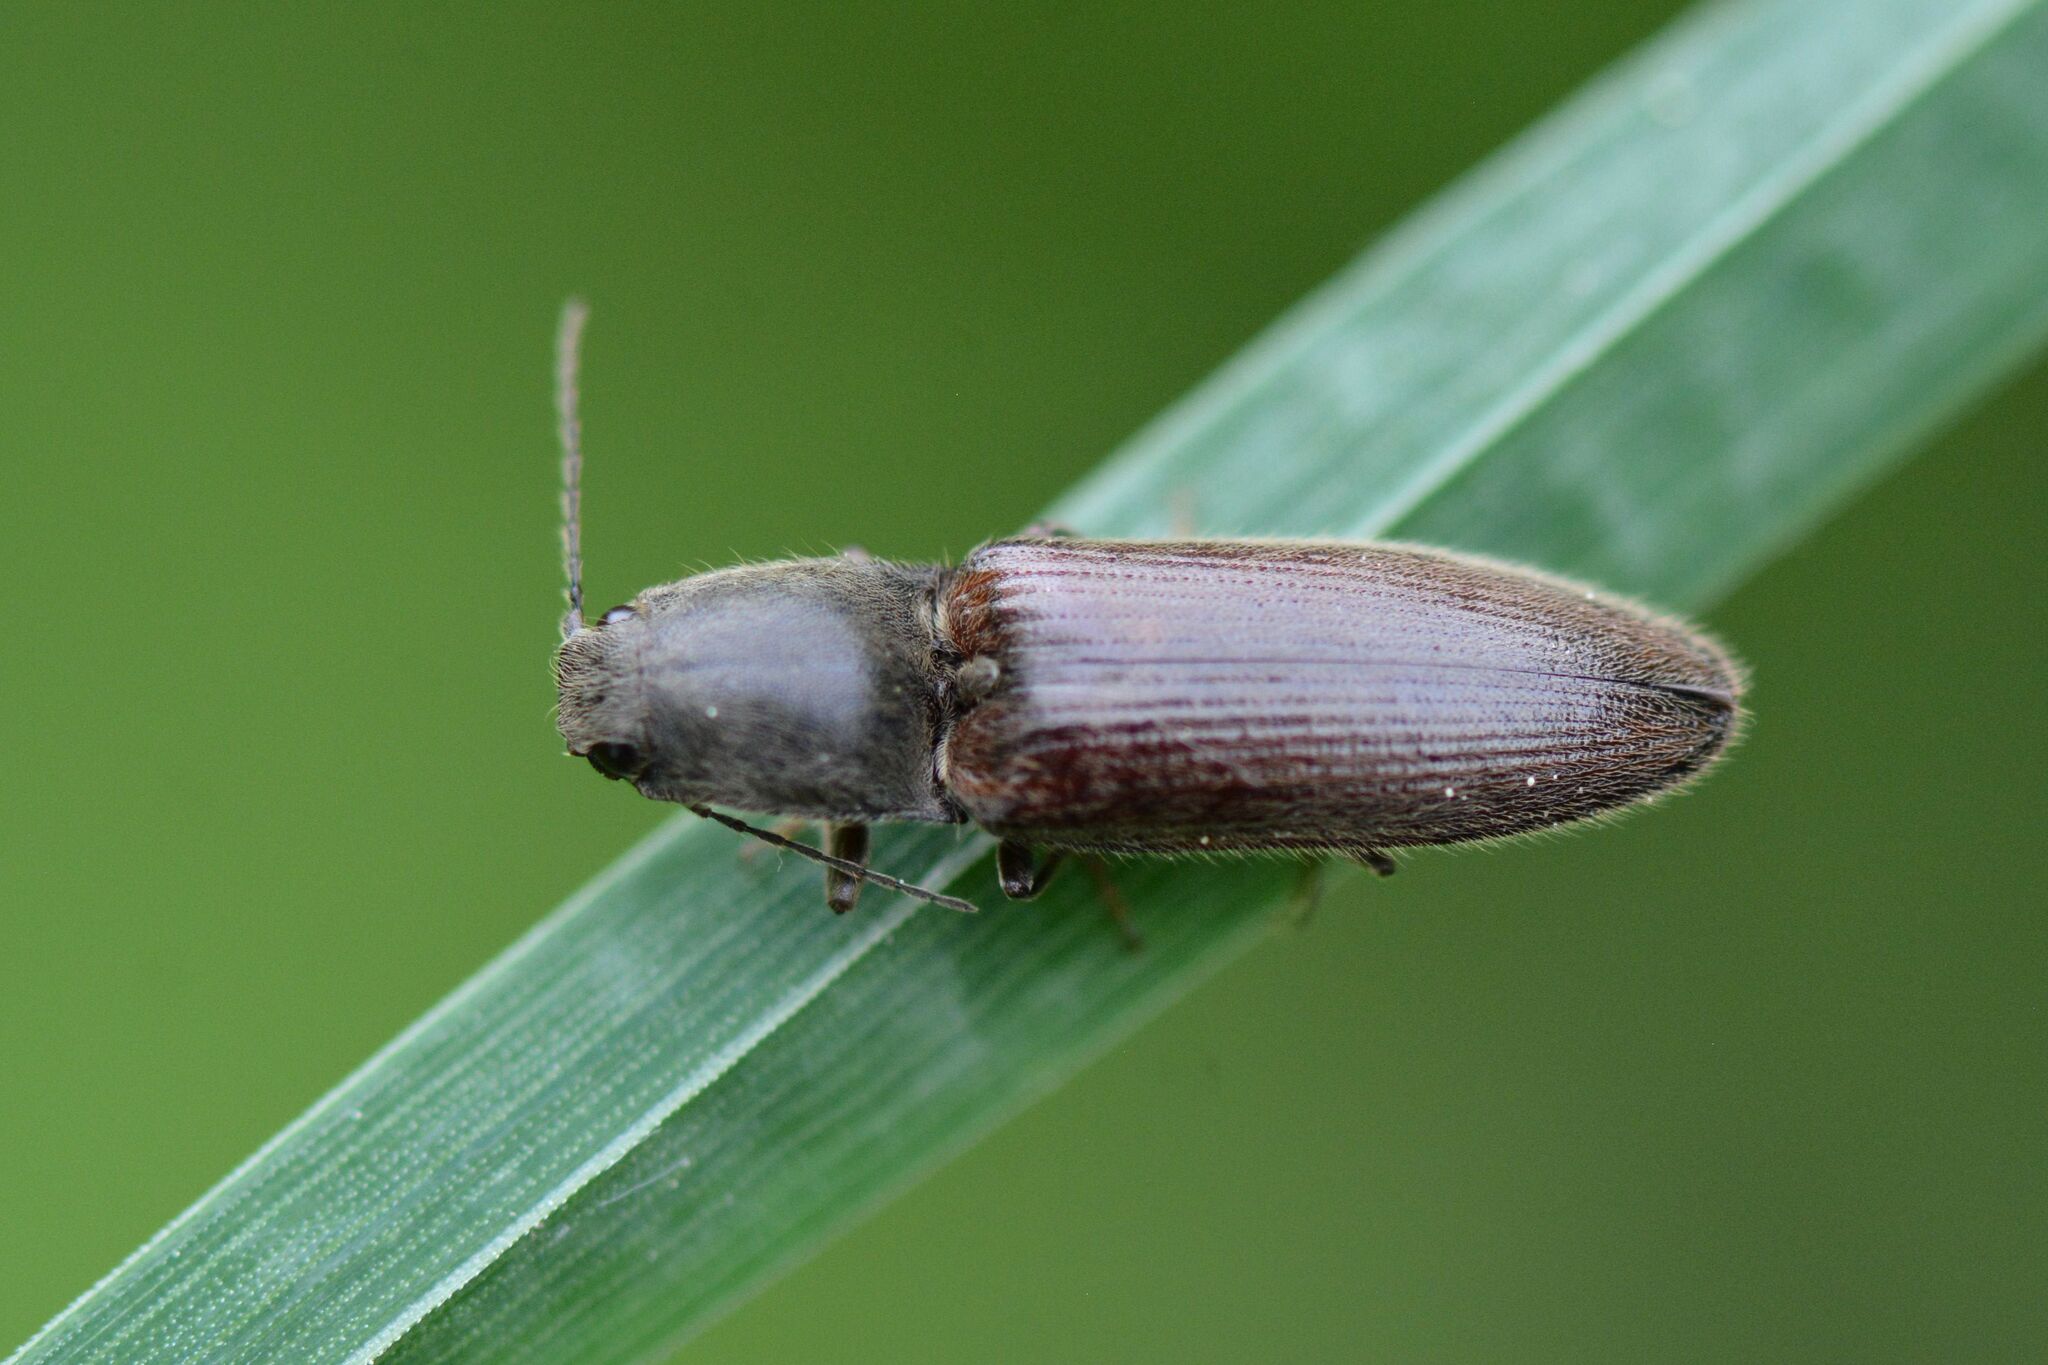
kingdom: Animalia
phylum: Arthropoda
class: Insecta
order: Coleoptera
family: Elateridae
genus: Athous
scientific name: Athous haemorrhoidalis
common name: Red-brown click beetle
